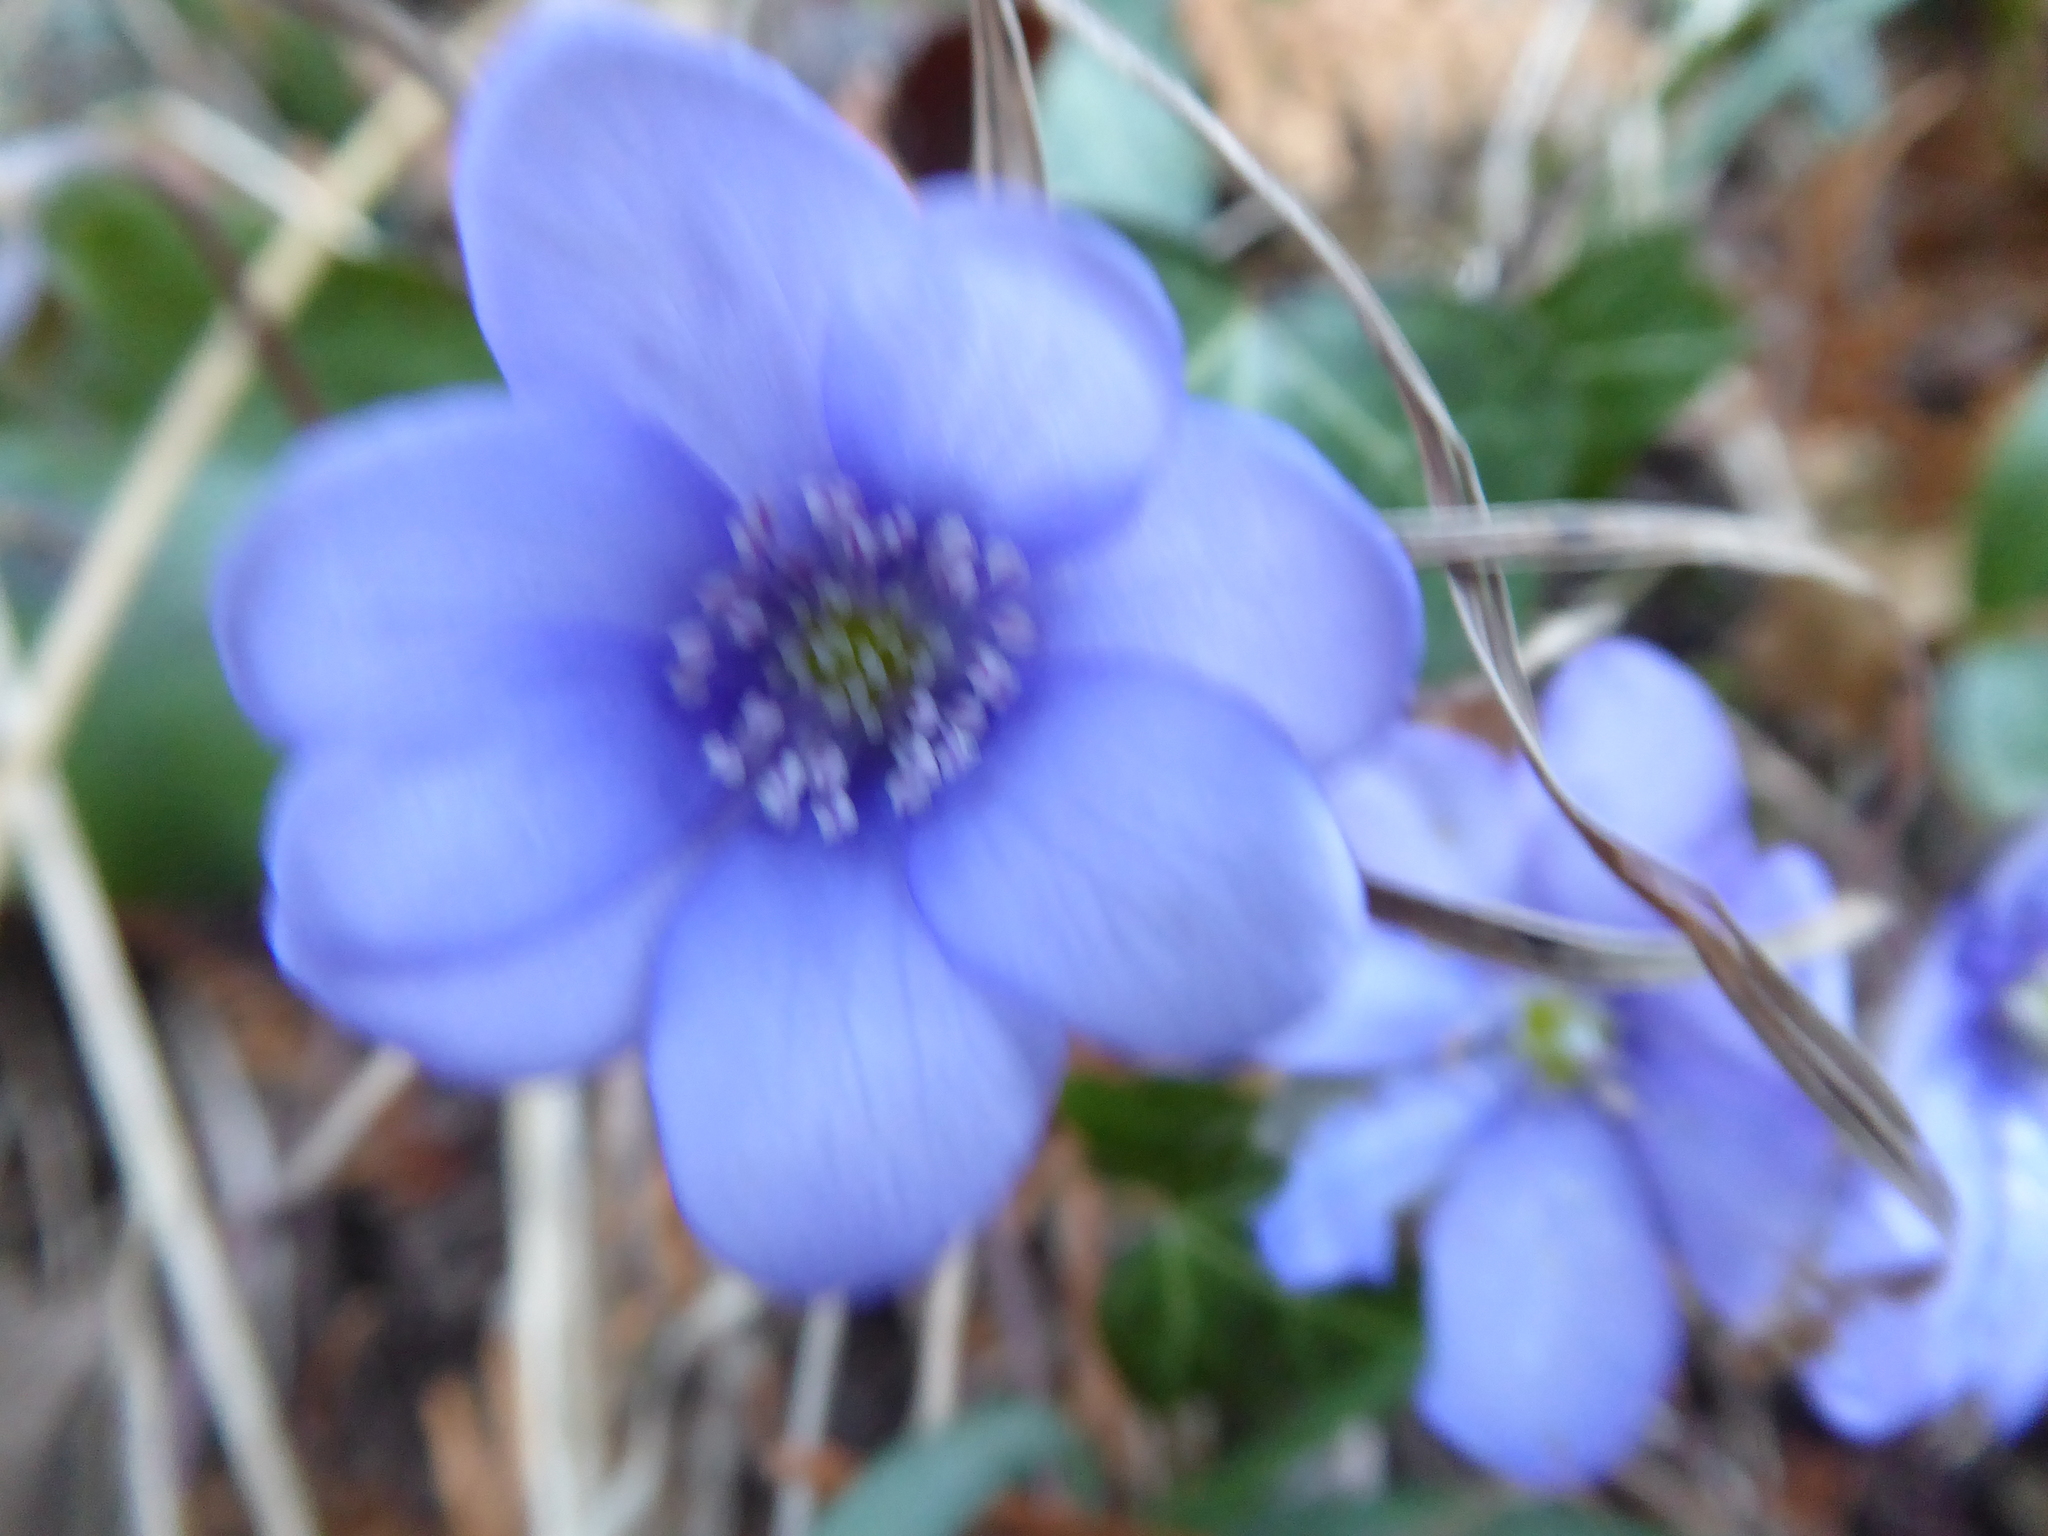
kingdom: Plantae
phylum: Tracheophyta
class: Magnoliopsida
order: Ranunculales
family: Ranunculaceae
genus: Hepatica
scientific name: Hepatica nobilis
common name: Liverleaf
